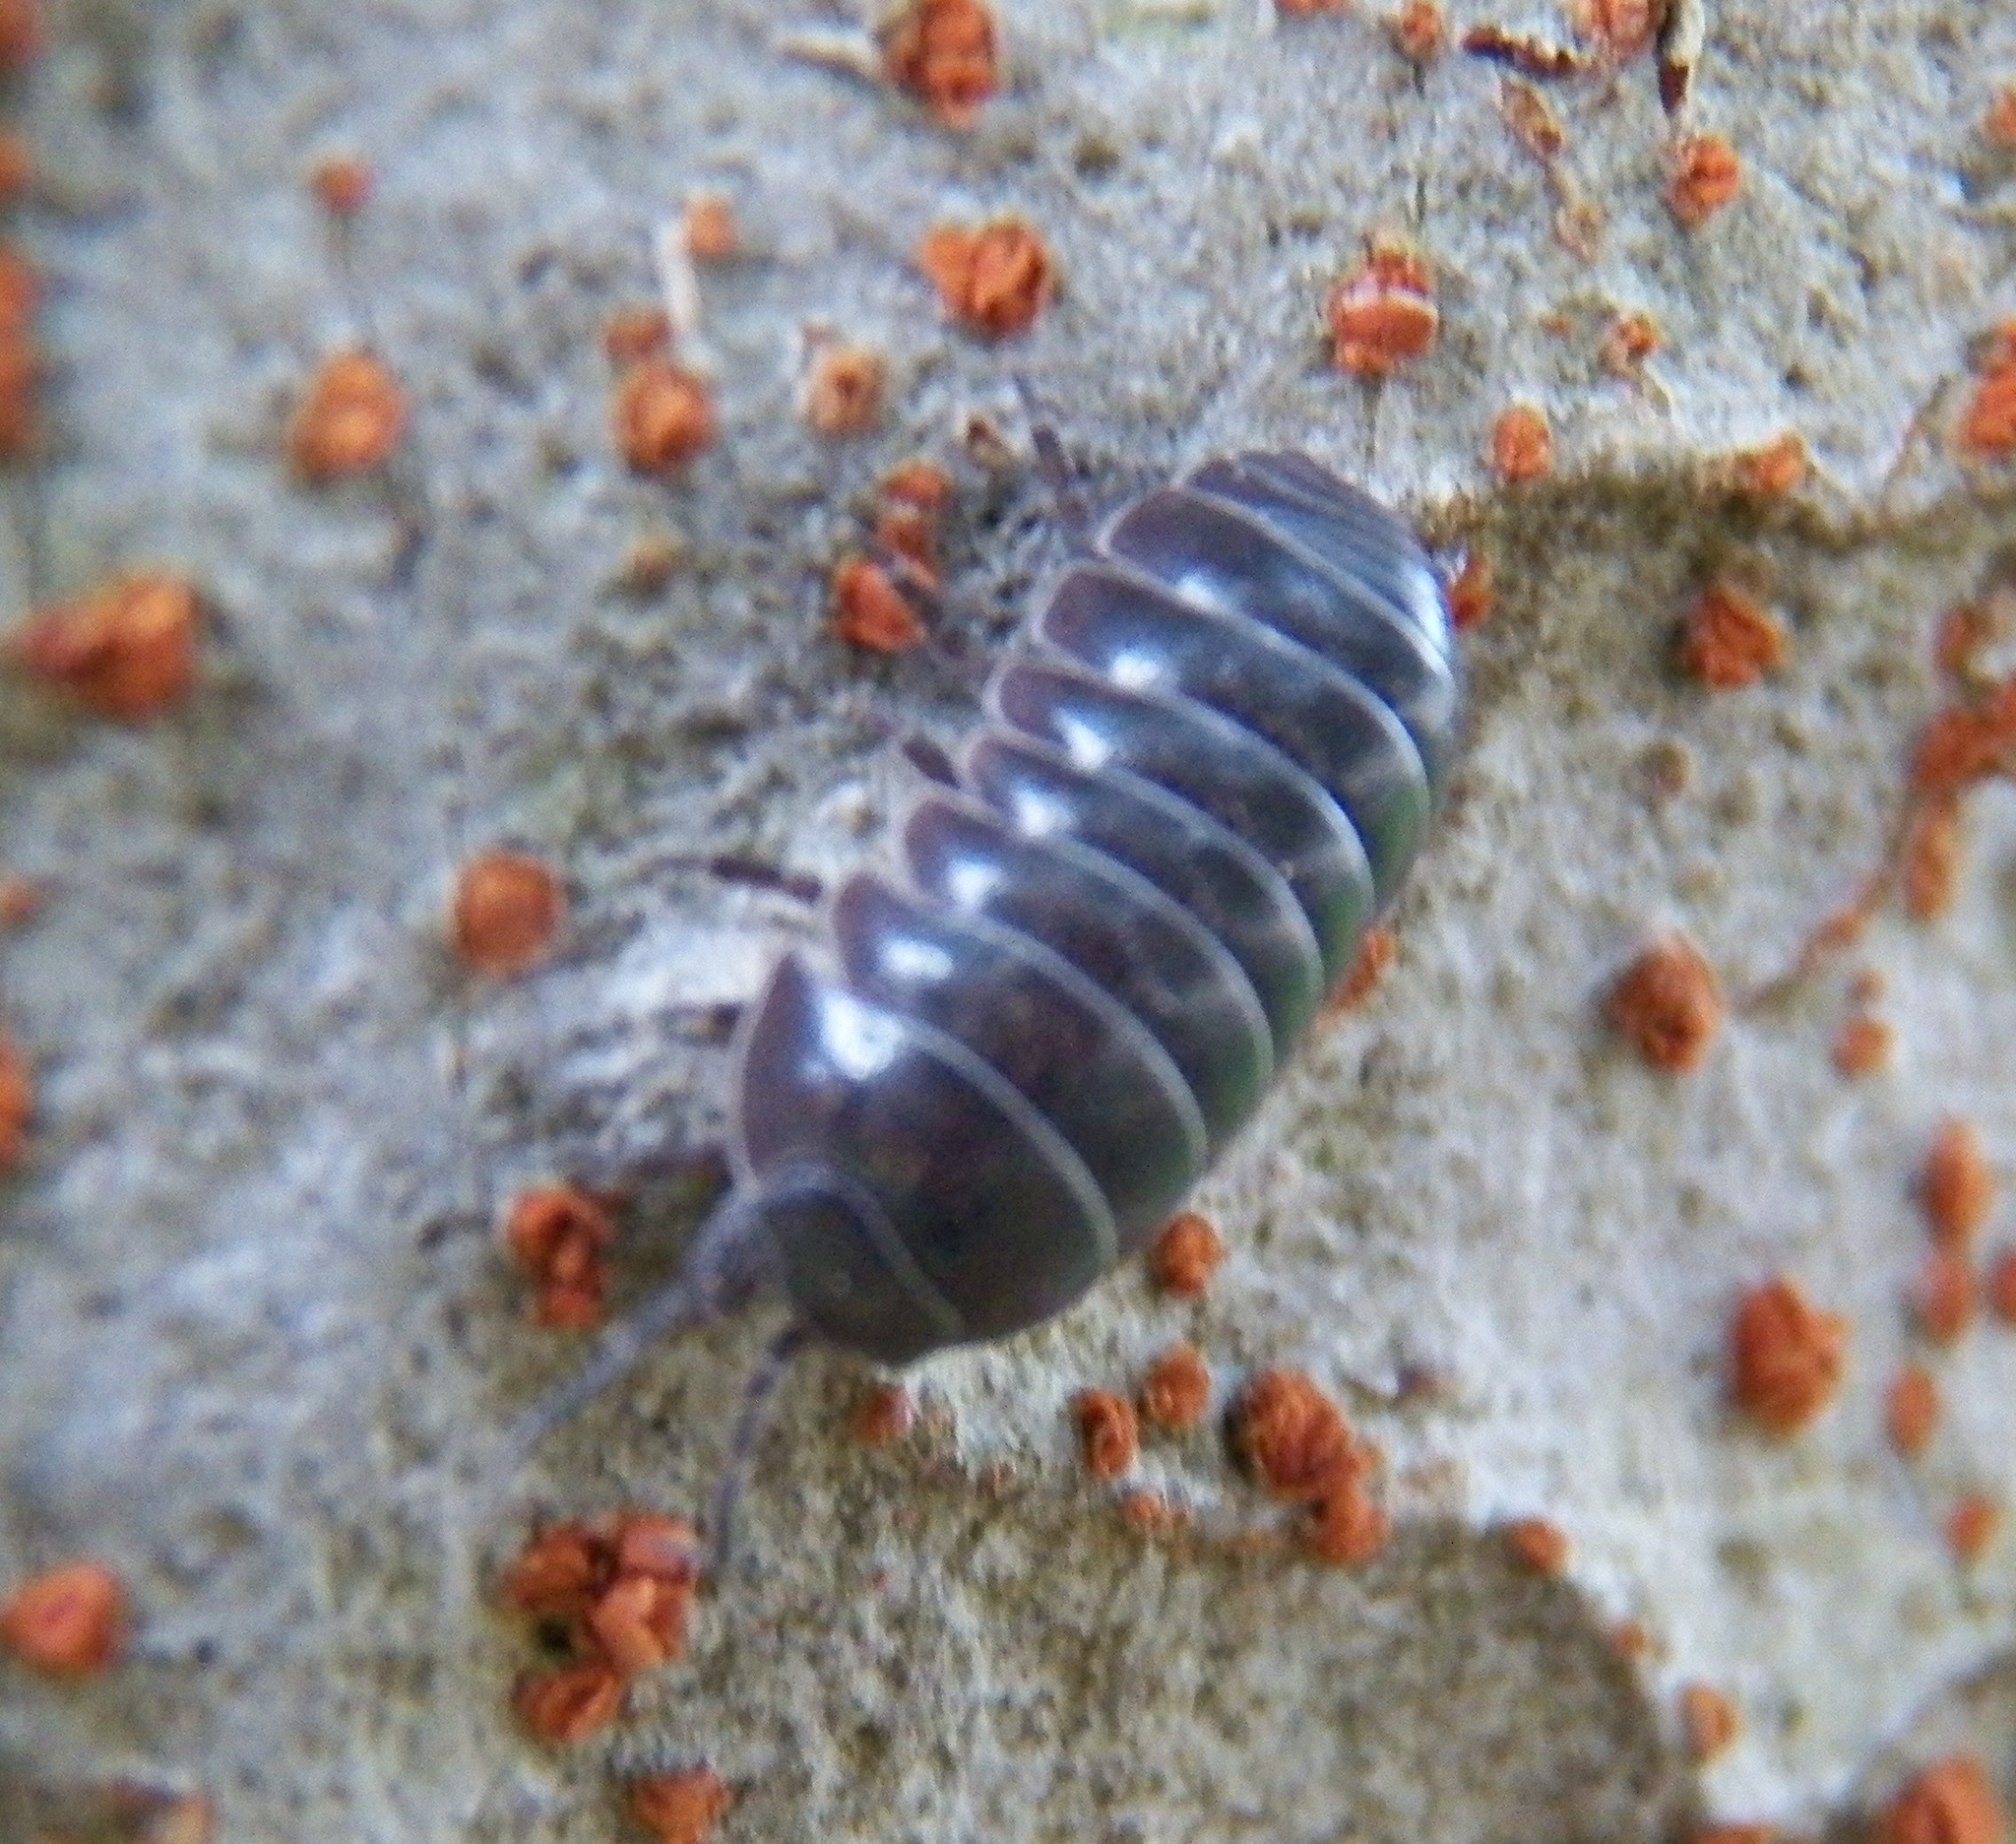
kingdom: Animalia
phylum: Arthropoda
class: Malacostraca
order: Isopoda
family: Armadillidiidae
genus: Armadillidium
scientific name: Armadillidium vulgare
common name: Common pill woodlouse
